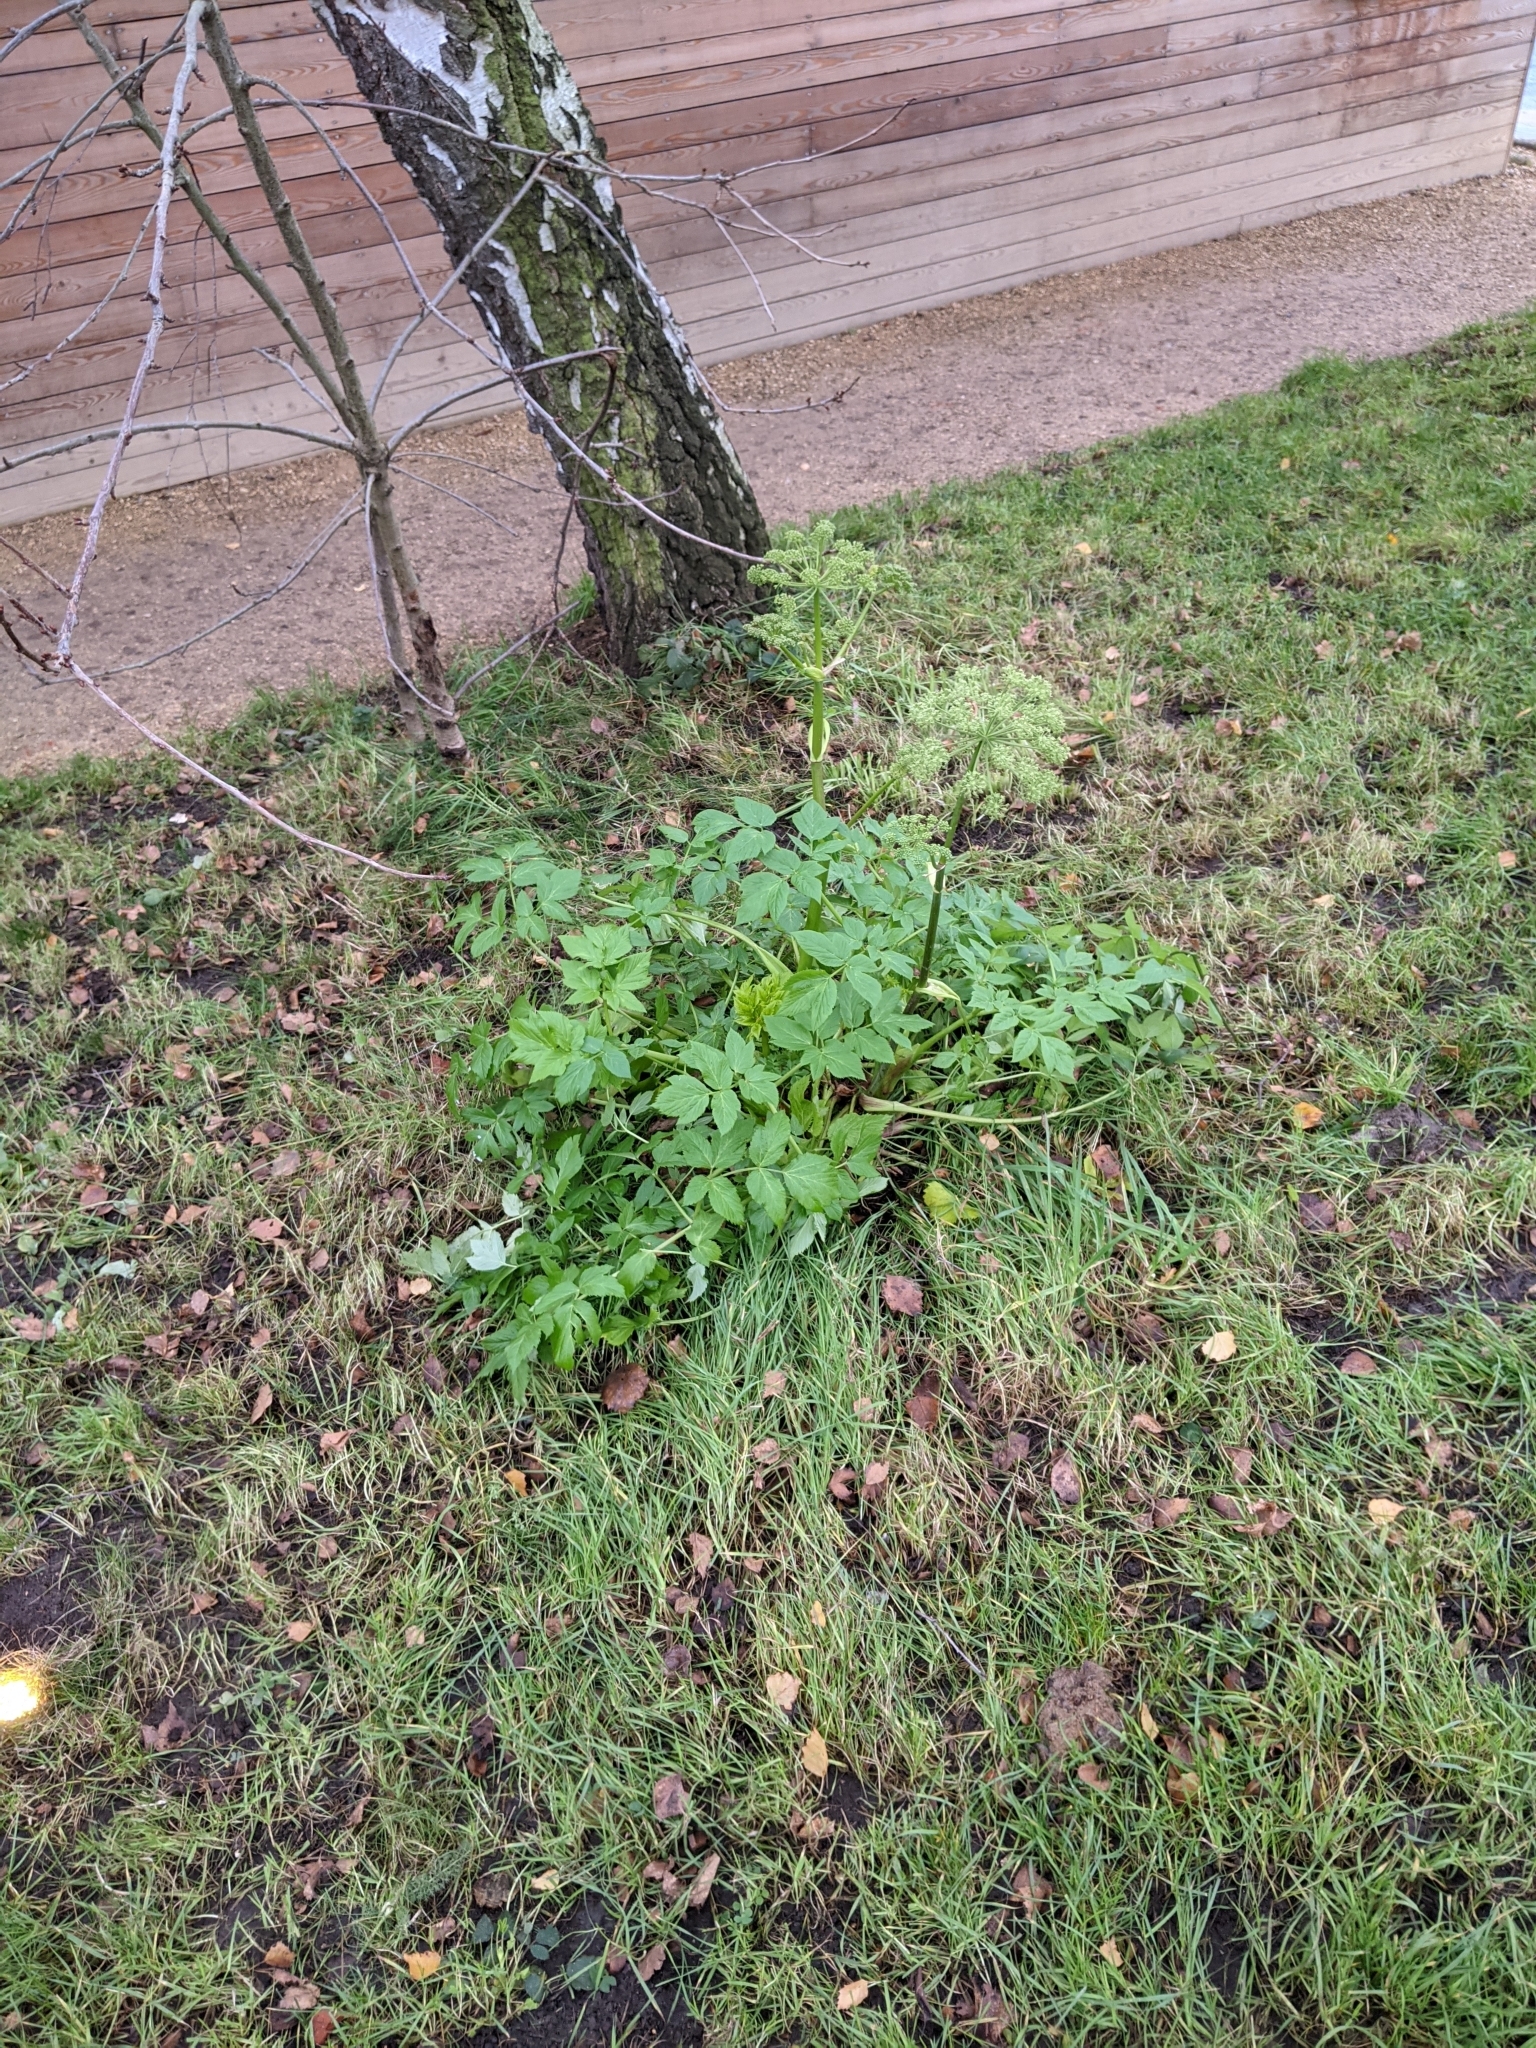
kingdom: Plantae
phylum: Tracheophyta
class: Magnoliopsida
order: Apiales
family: Apiaceae
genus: Angelica
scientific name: Angelica archangelica
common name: Garden angelica
